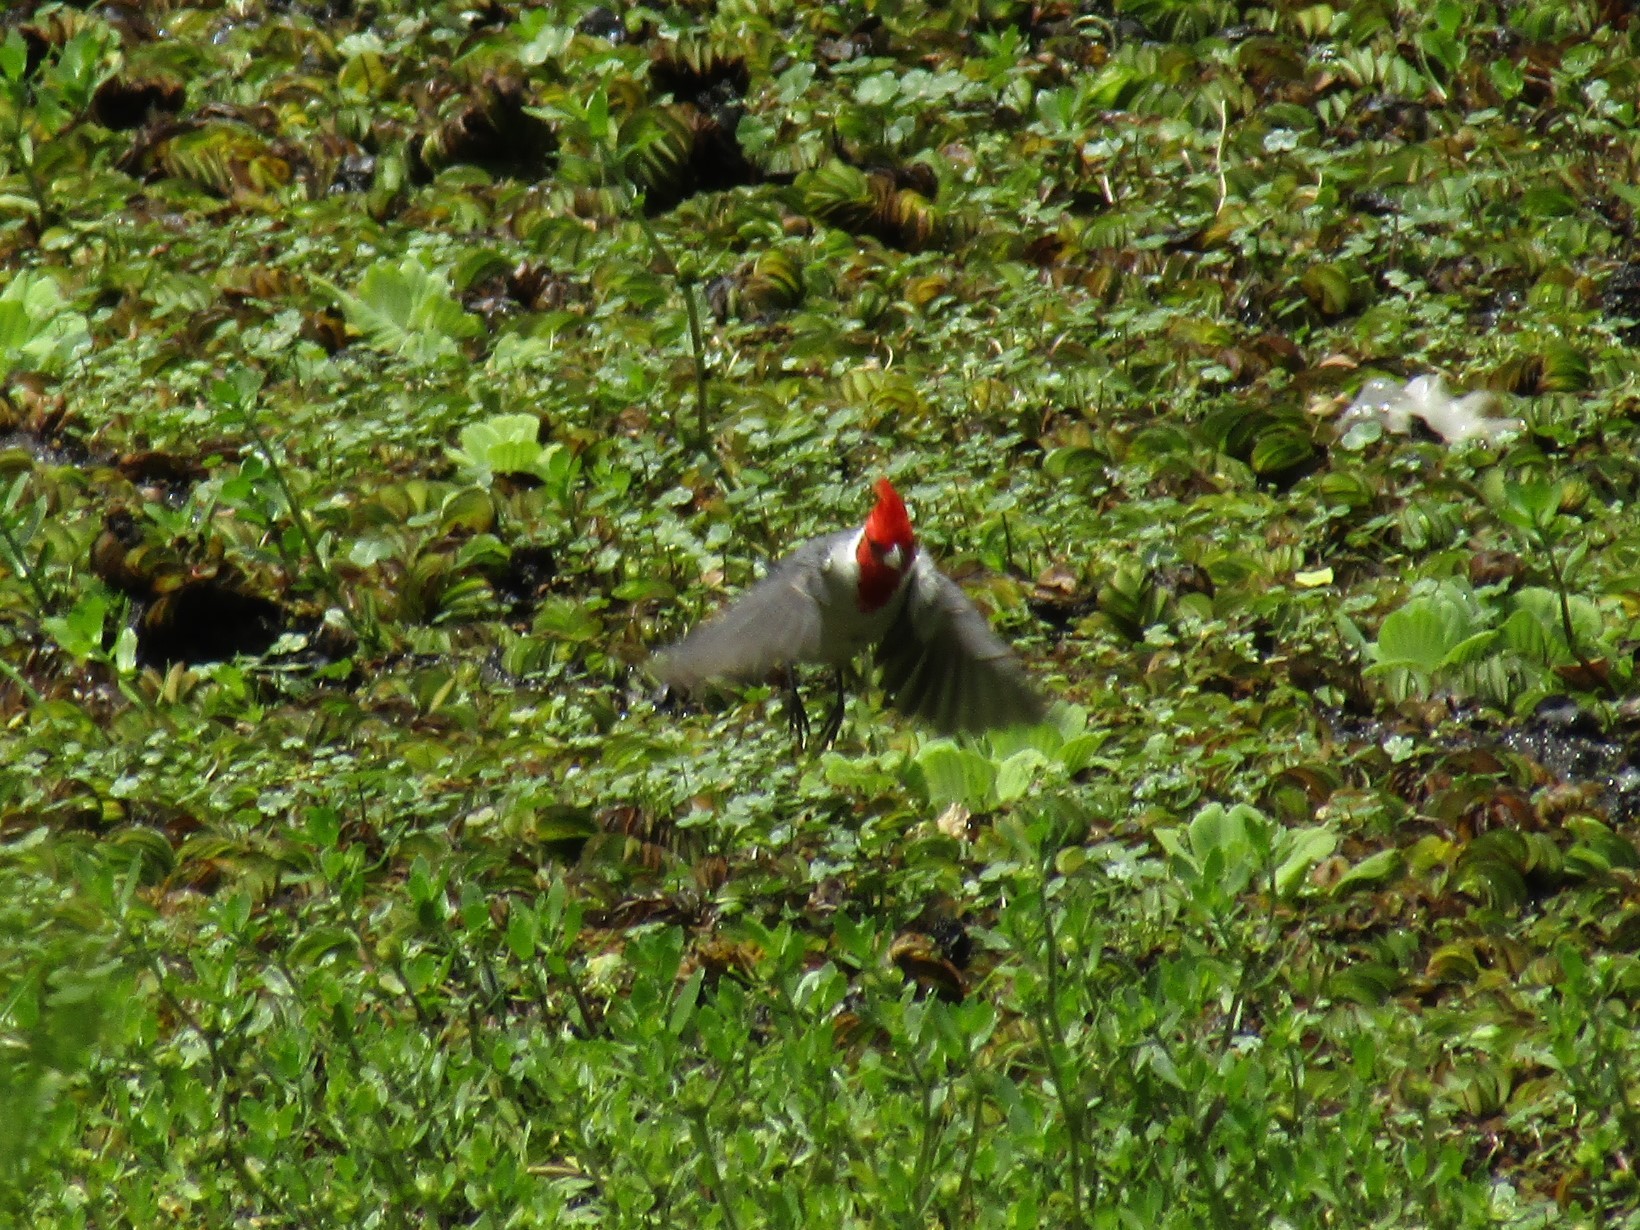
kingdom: Animalia
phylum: Chordata
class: Aves
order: Passeriformes
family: Thraupidae
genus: Paroaria
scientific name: Paroaria coronata
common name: Red-crested cardinal
